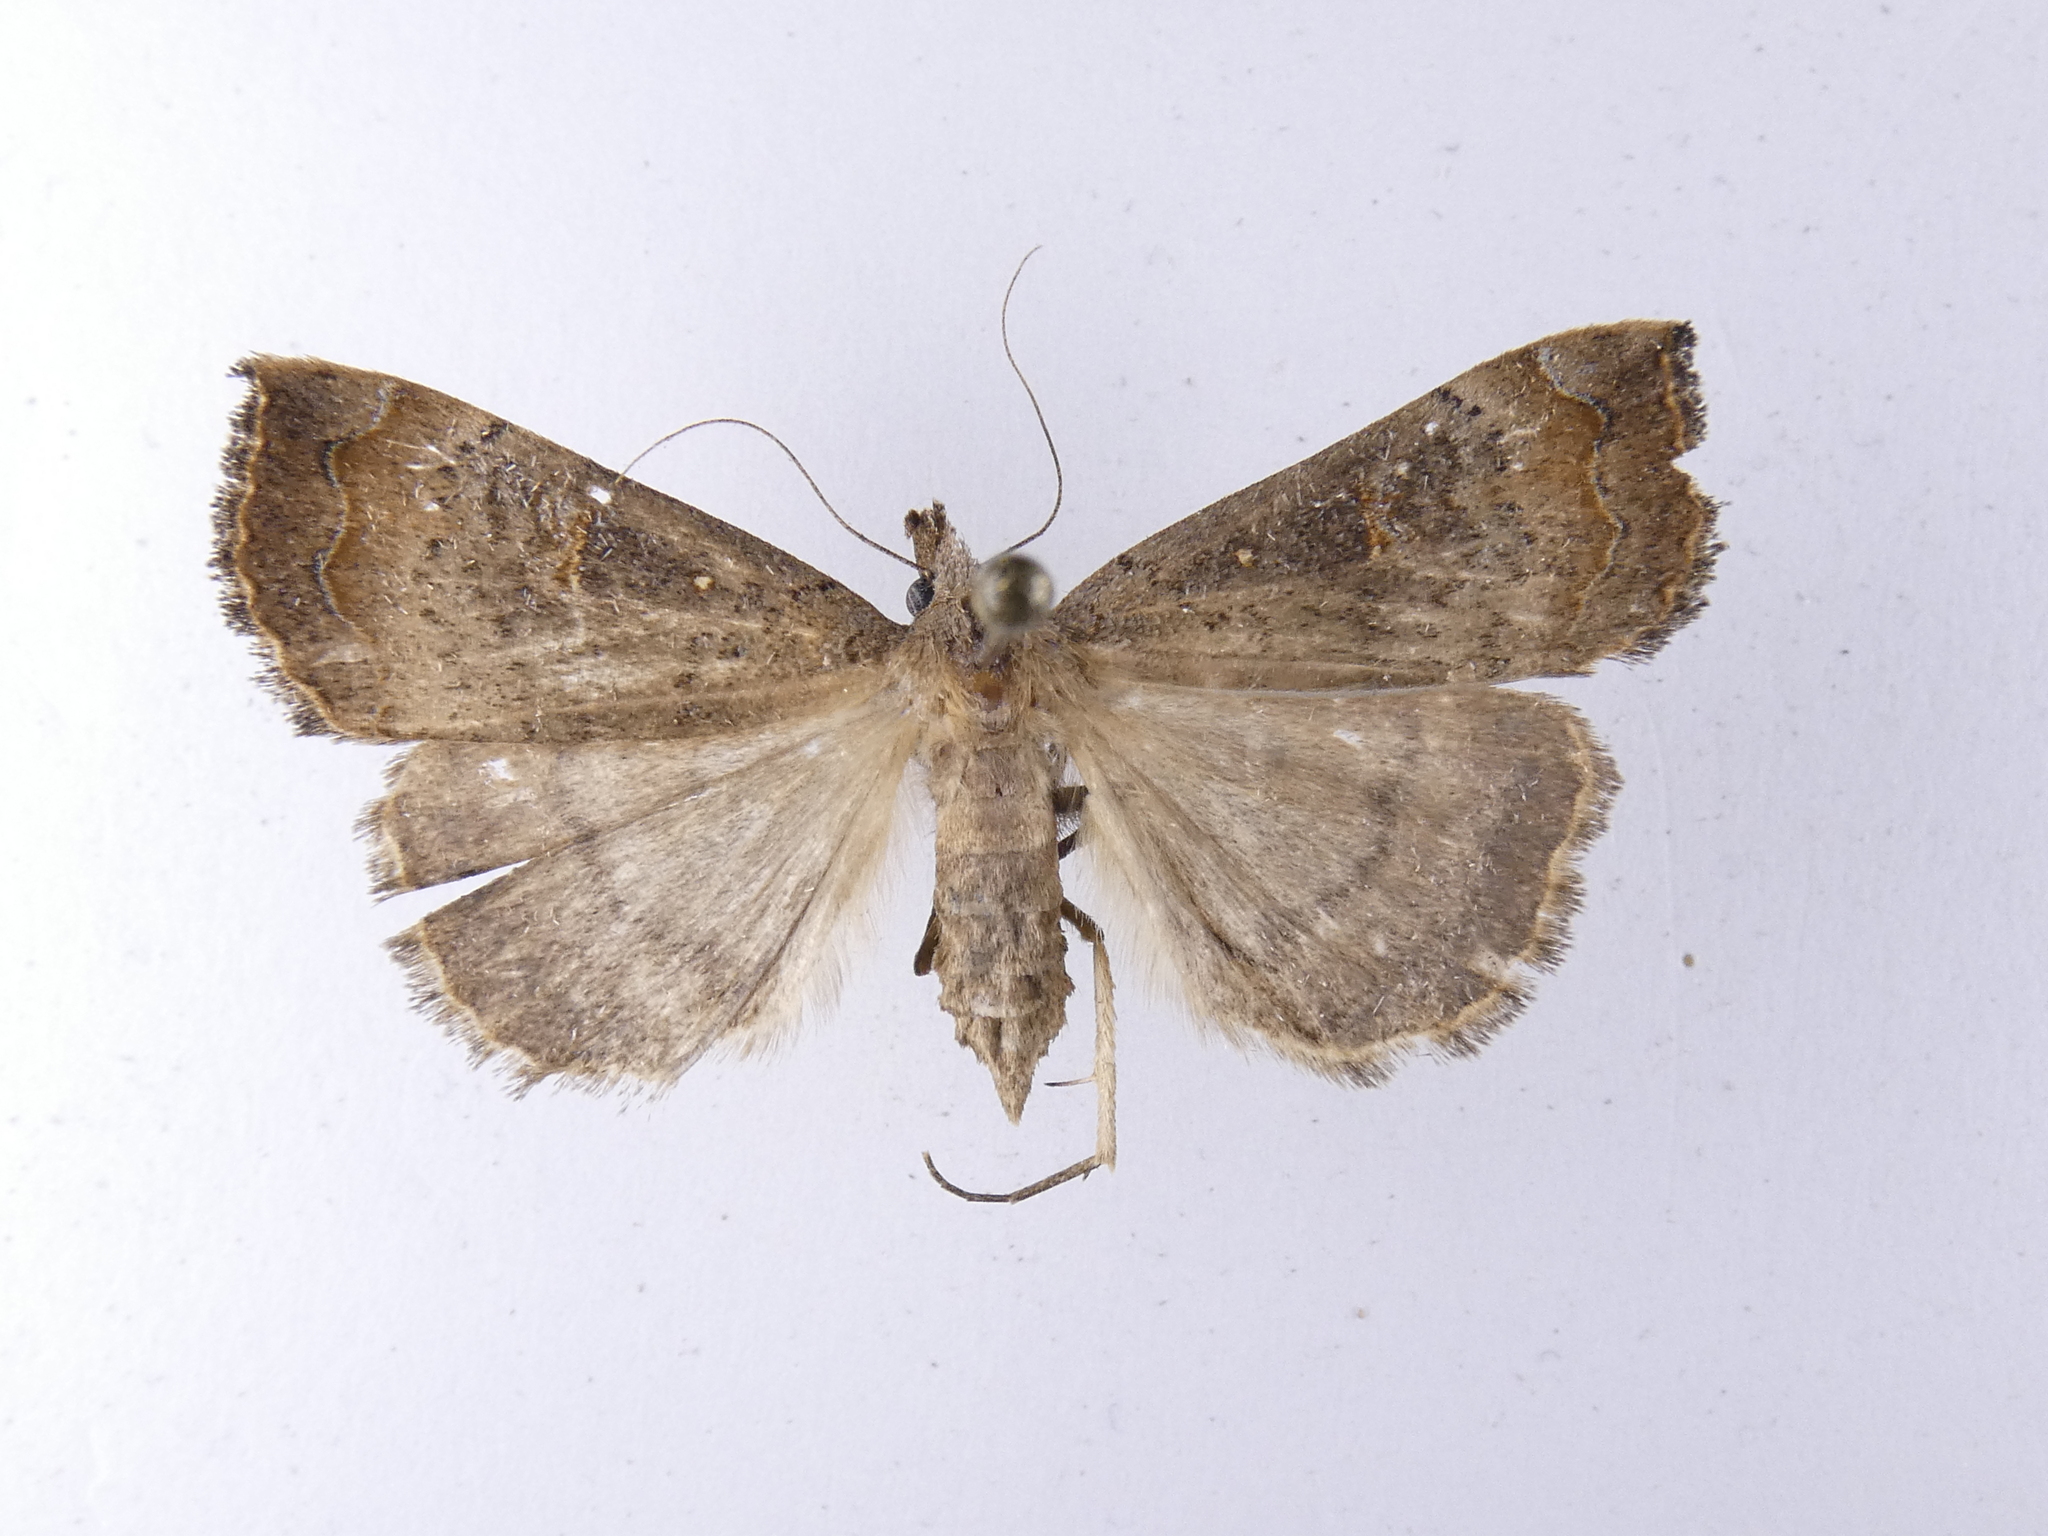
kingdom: Animalia
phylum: Arthropoda
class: Insecta
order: Lepidoptera
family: Erebidae
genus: Rhapsa
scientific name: Rhapsa scotosialis
